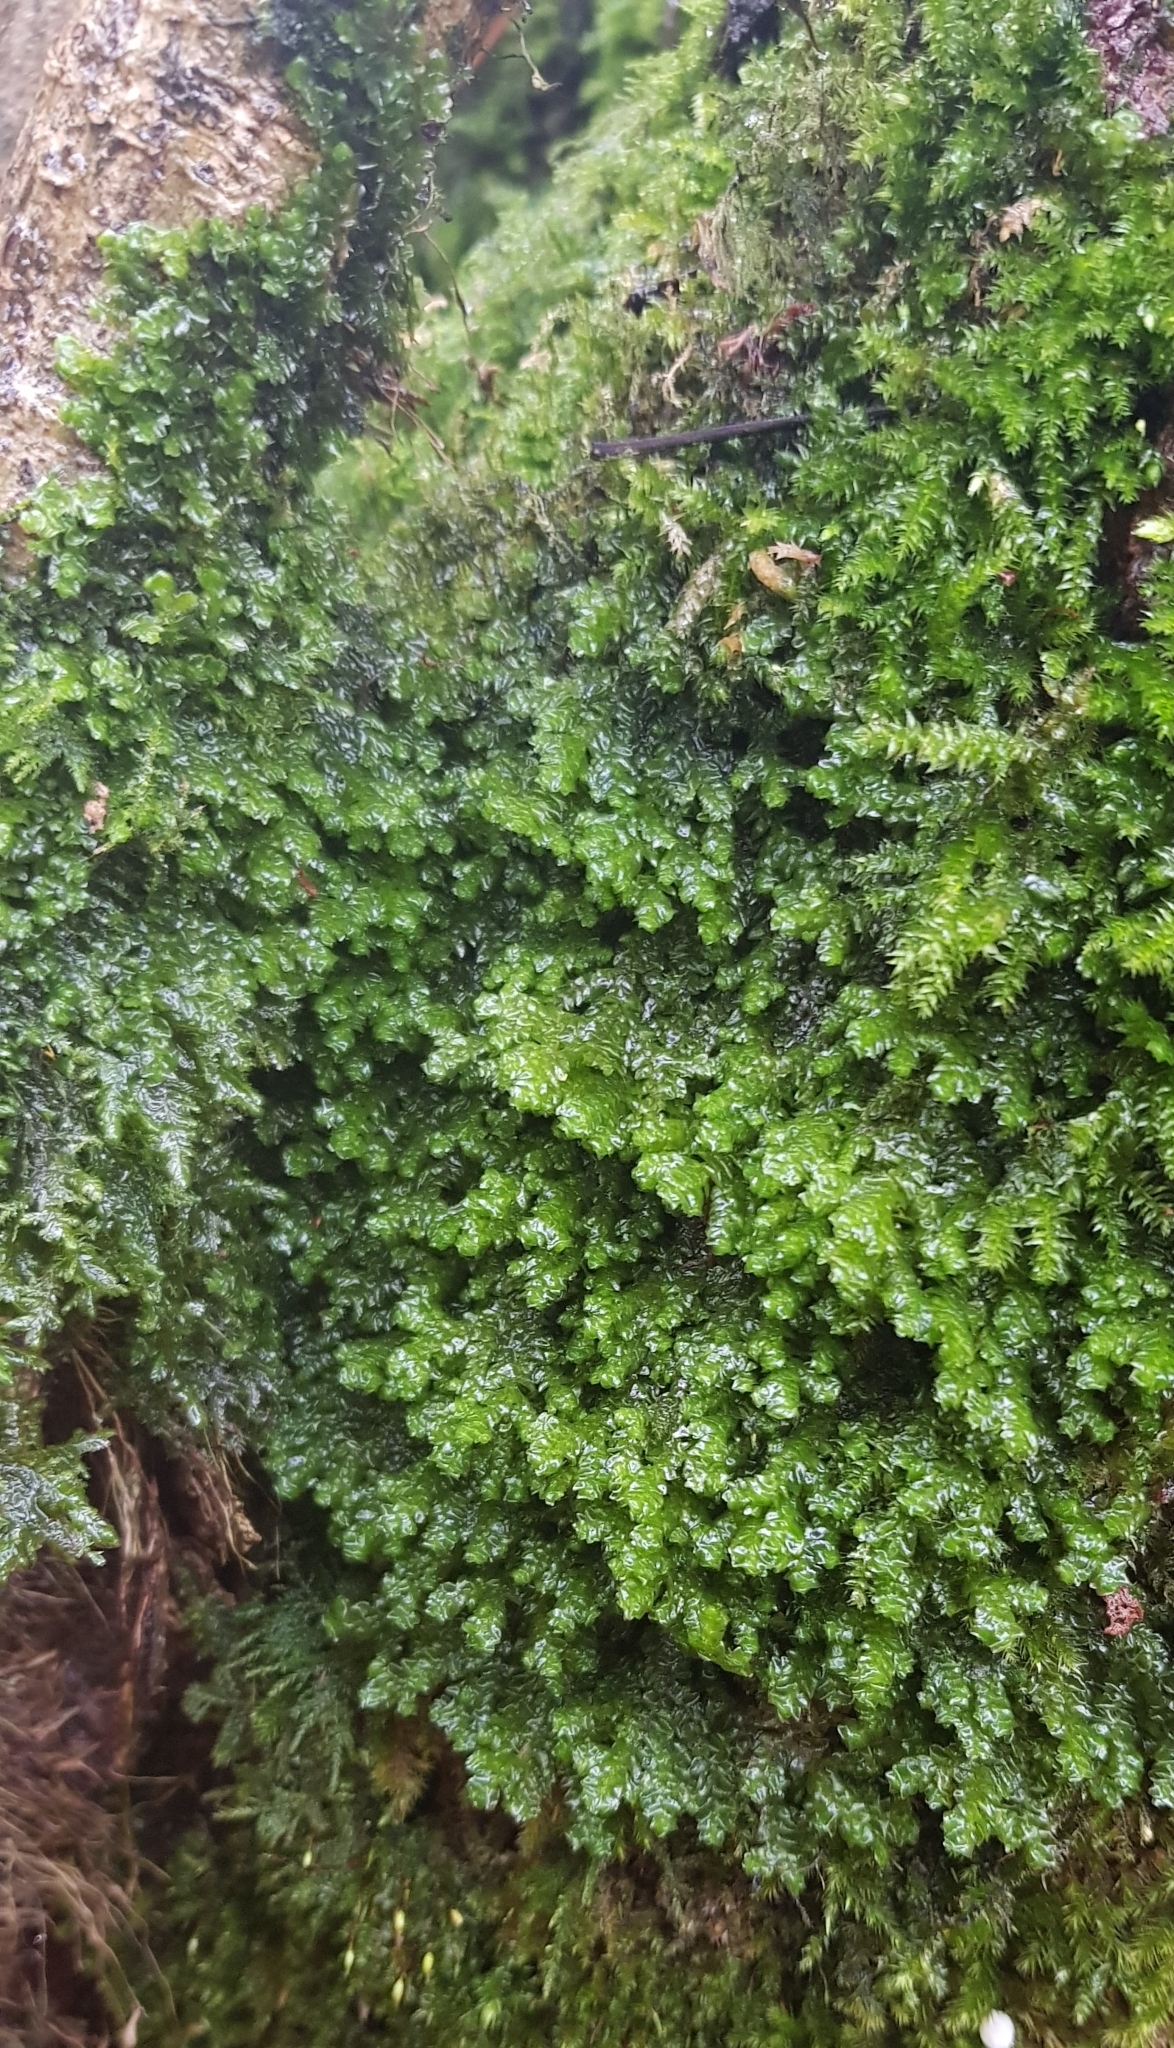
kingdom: Plantae
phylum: Marchantiophyta
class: Jungermanniopsida
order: Porellales
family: Porellaceae
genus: Porella
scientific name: Porella platyphylla
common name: Wall scalewort
